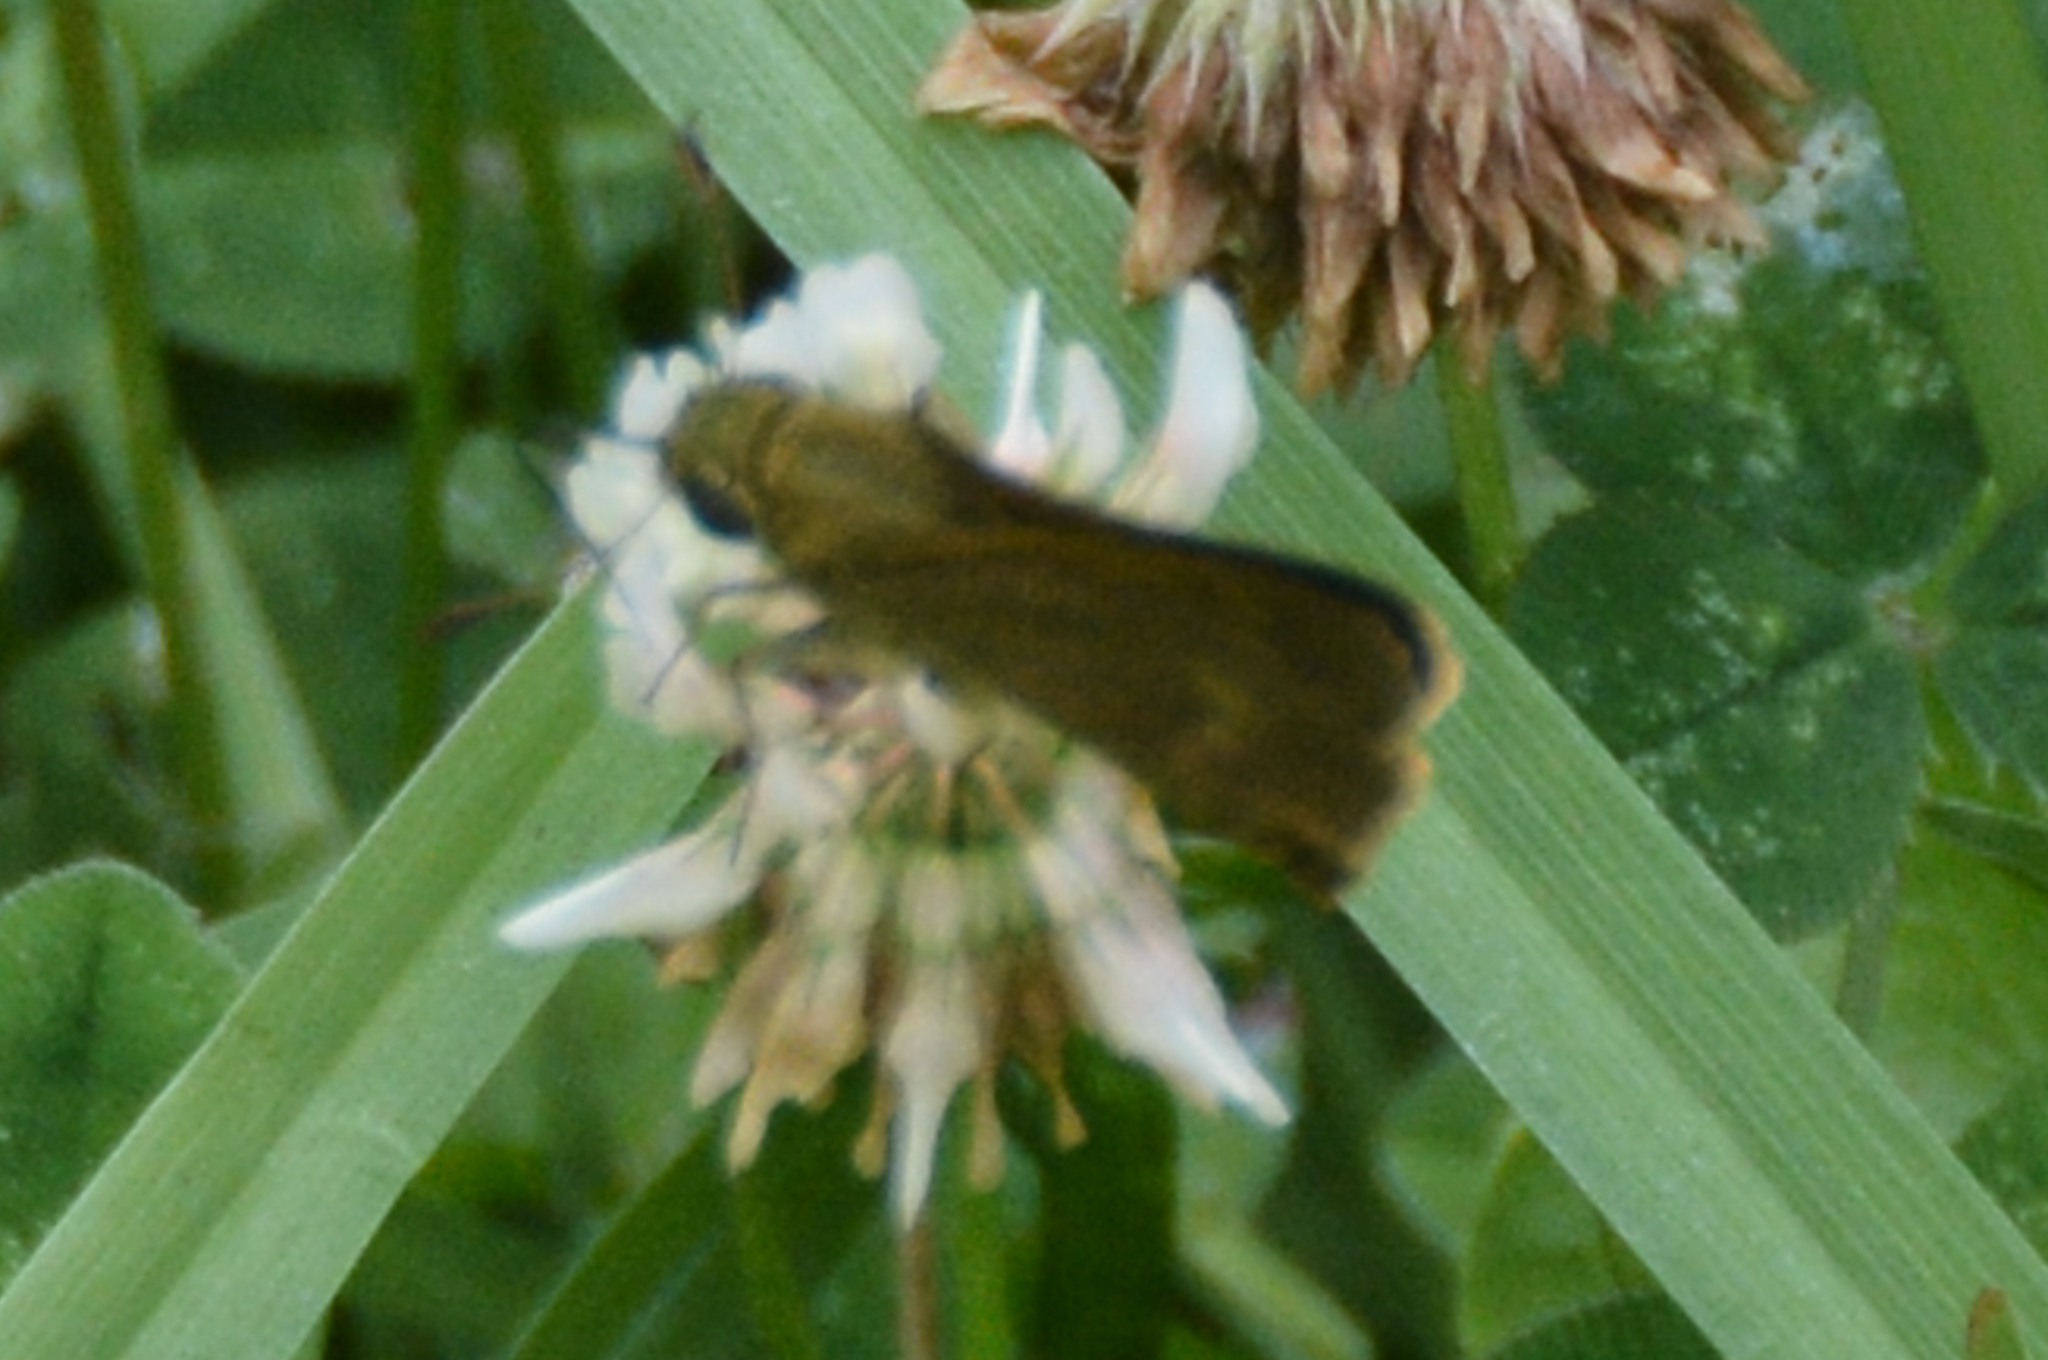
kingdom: Animalia
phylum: Arthropoda
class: Insecta
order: Lepidoptera
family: Hesperiidae
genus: Polites
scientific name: Polites egeremet
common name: Northern broken-dash
